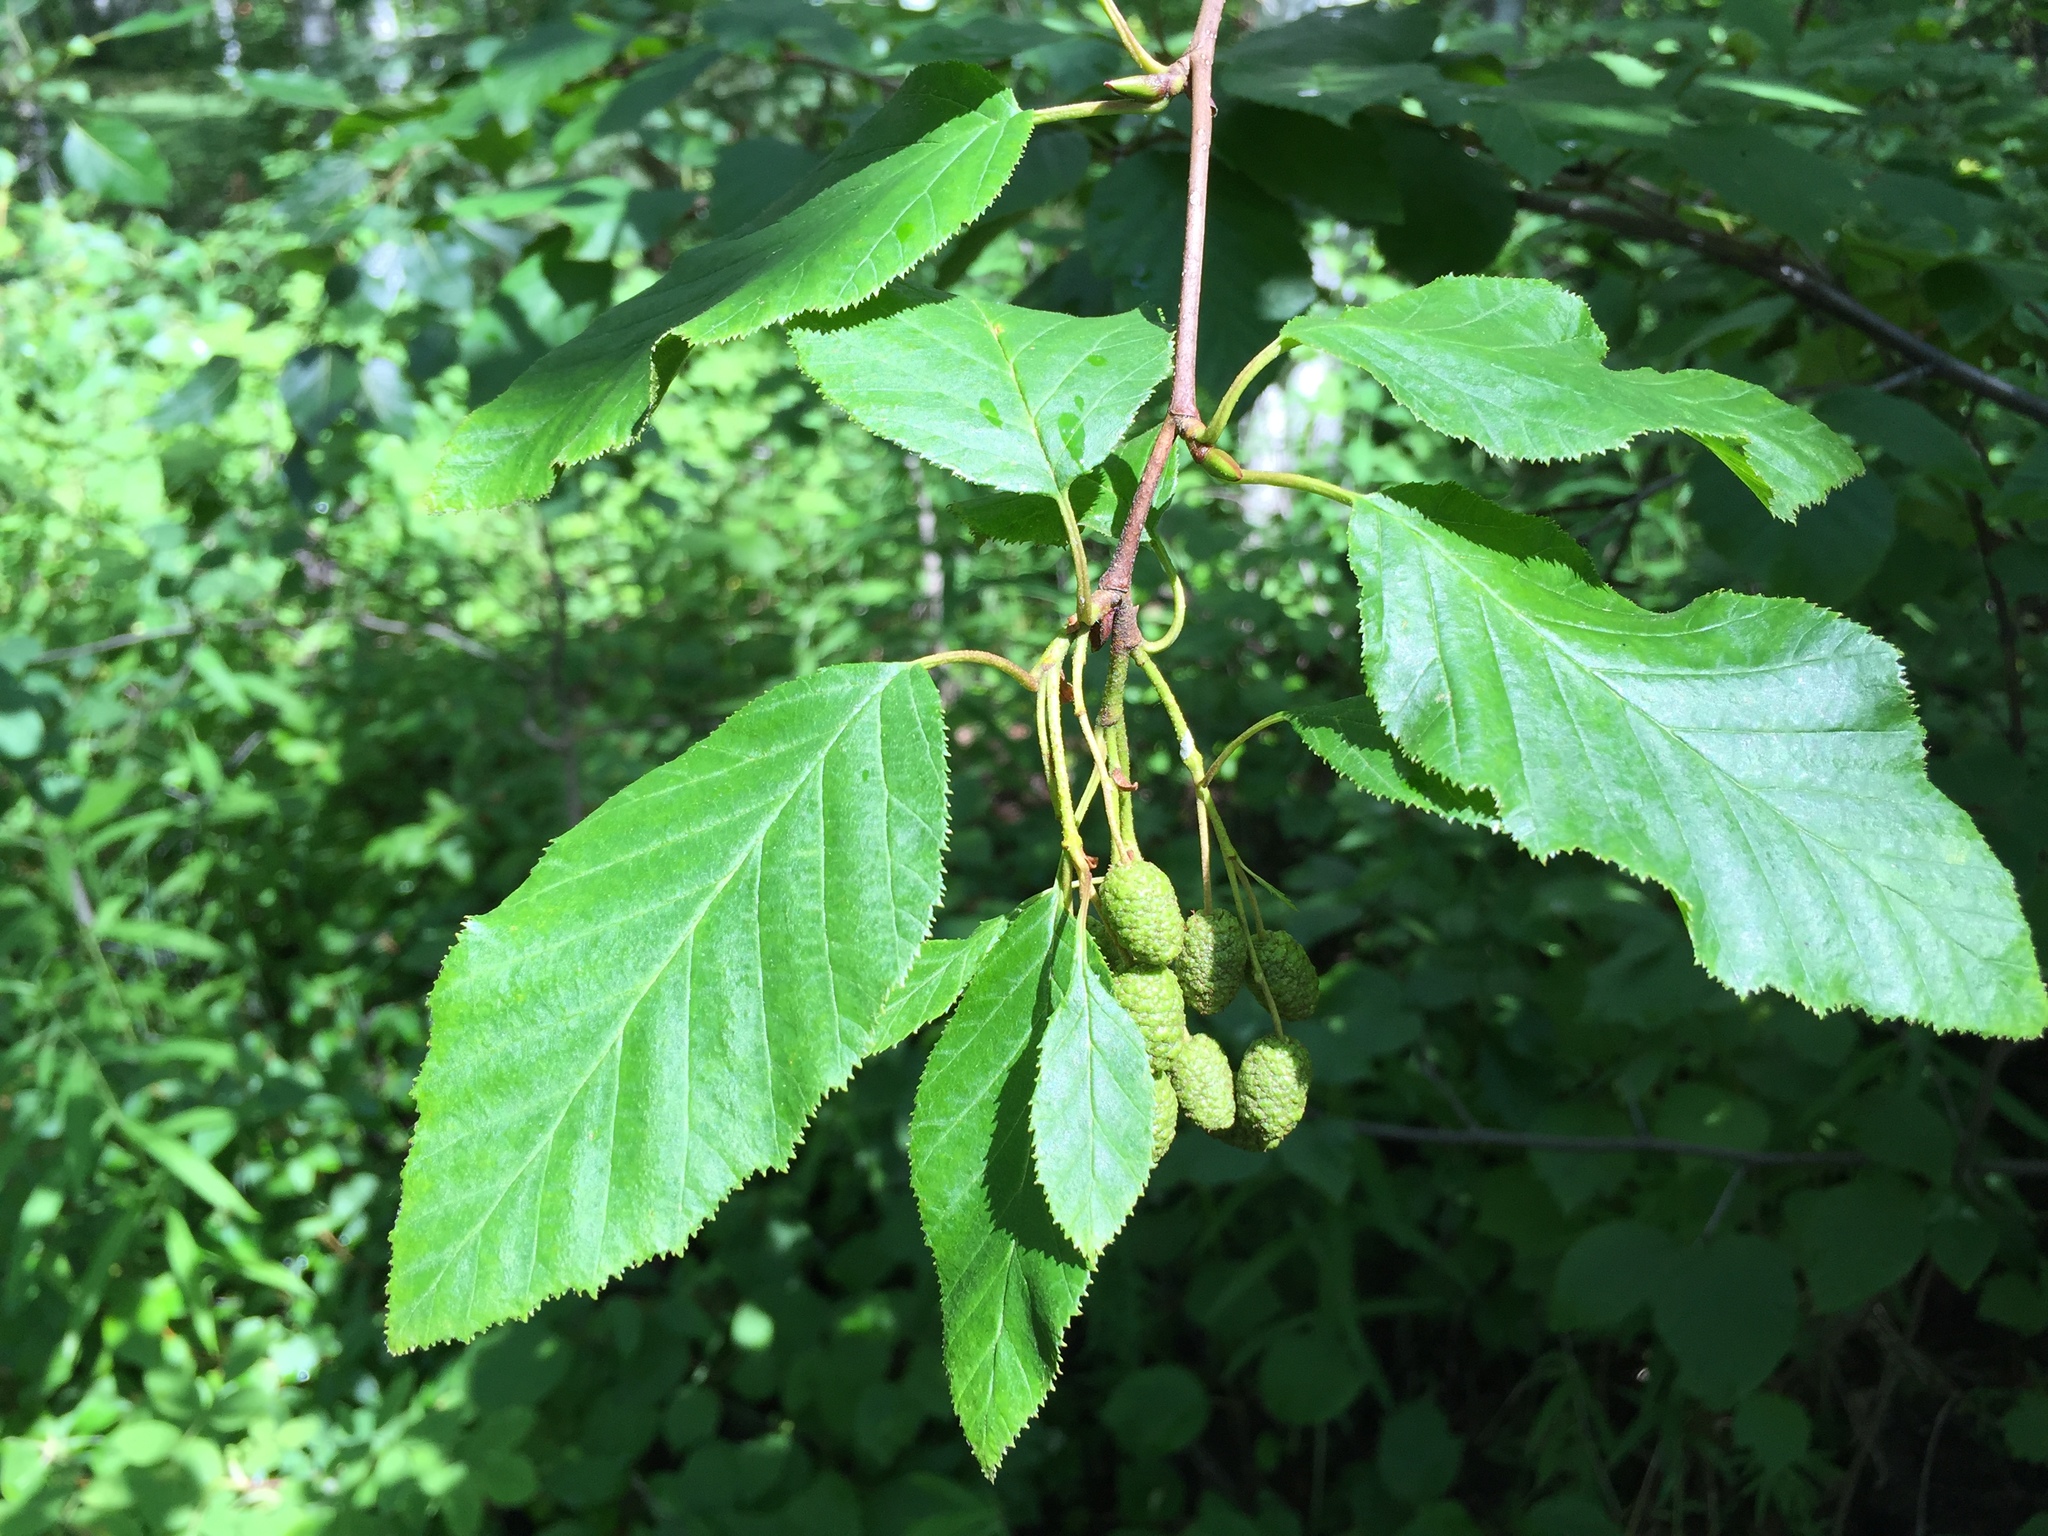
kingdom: Plantae
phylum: Tracheophyta
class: Magnoliopsida
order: Fagales
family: Betulaceae
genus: Alnus
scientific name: Alnus alnobetula
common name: Green alder
